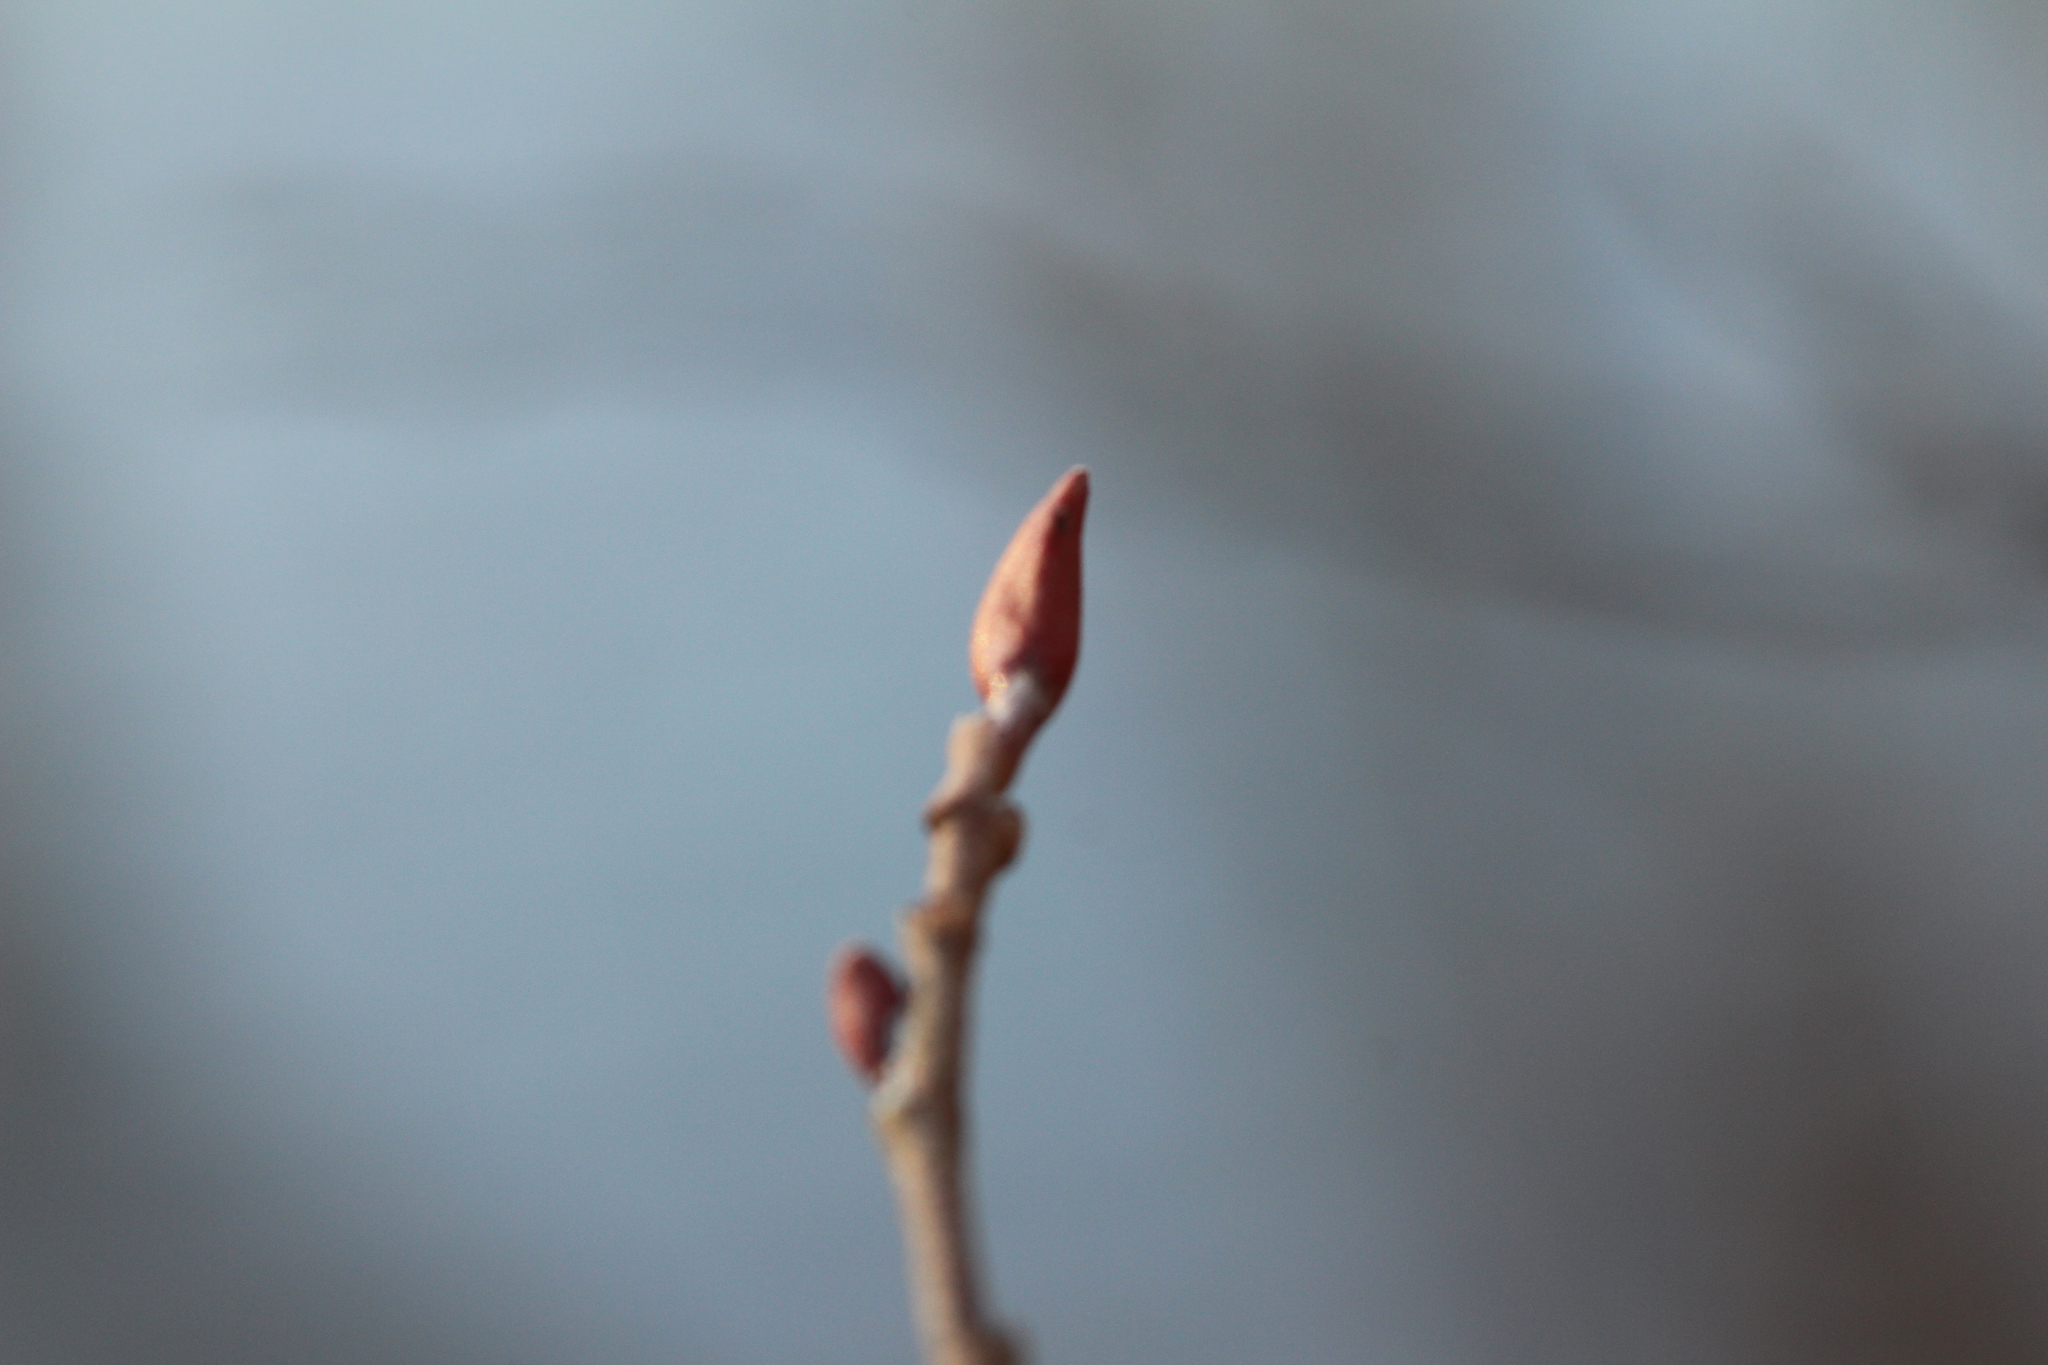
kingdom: Plantae
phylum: Tracheophyta
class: Magnoliopsida
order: Fagales
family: Betulaceae
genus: Alnus
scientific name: Alnus serrulata
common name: Hazel alder
